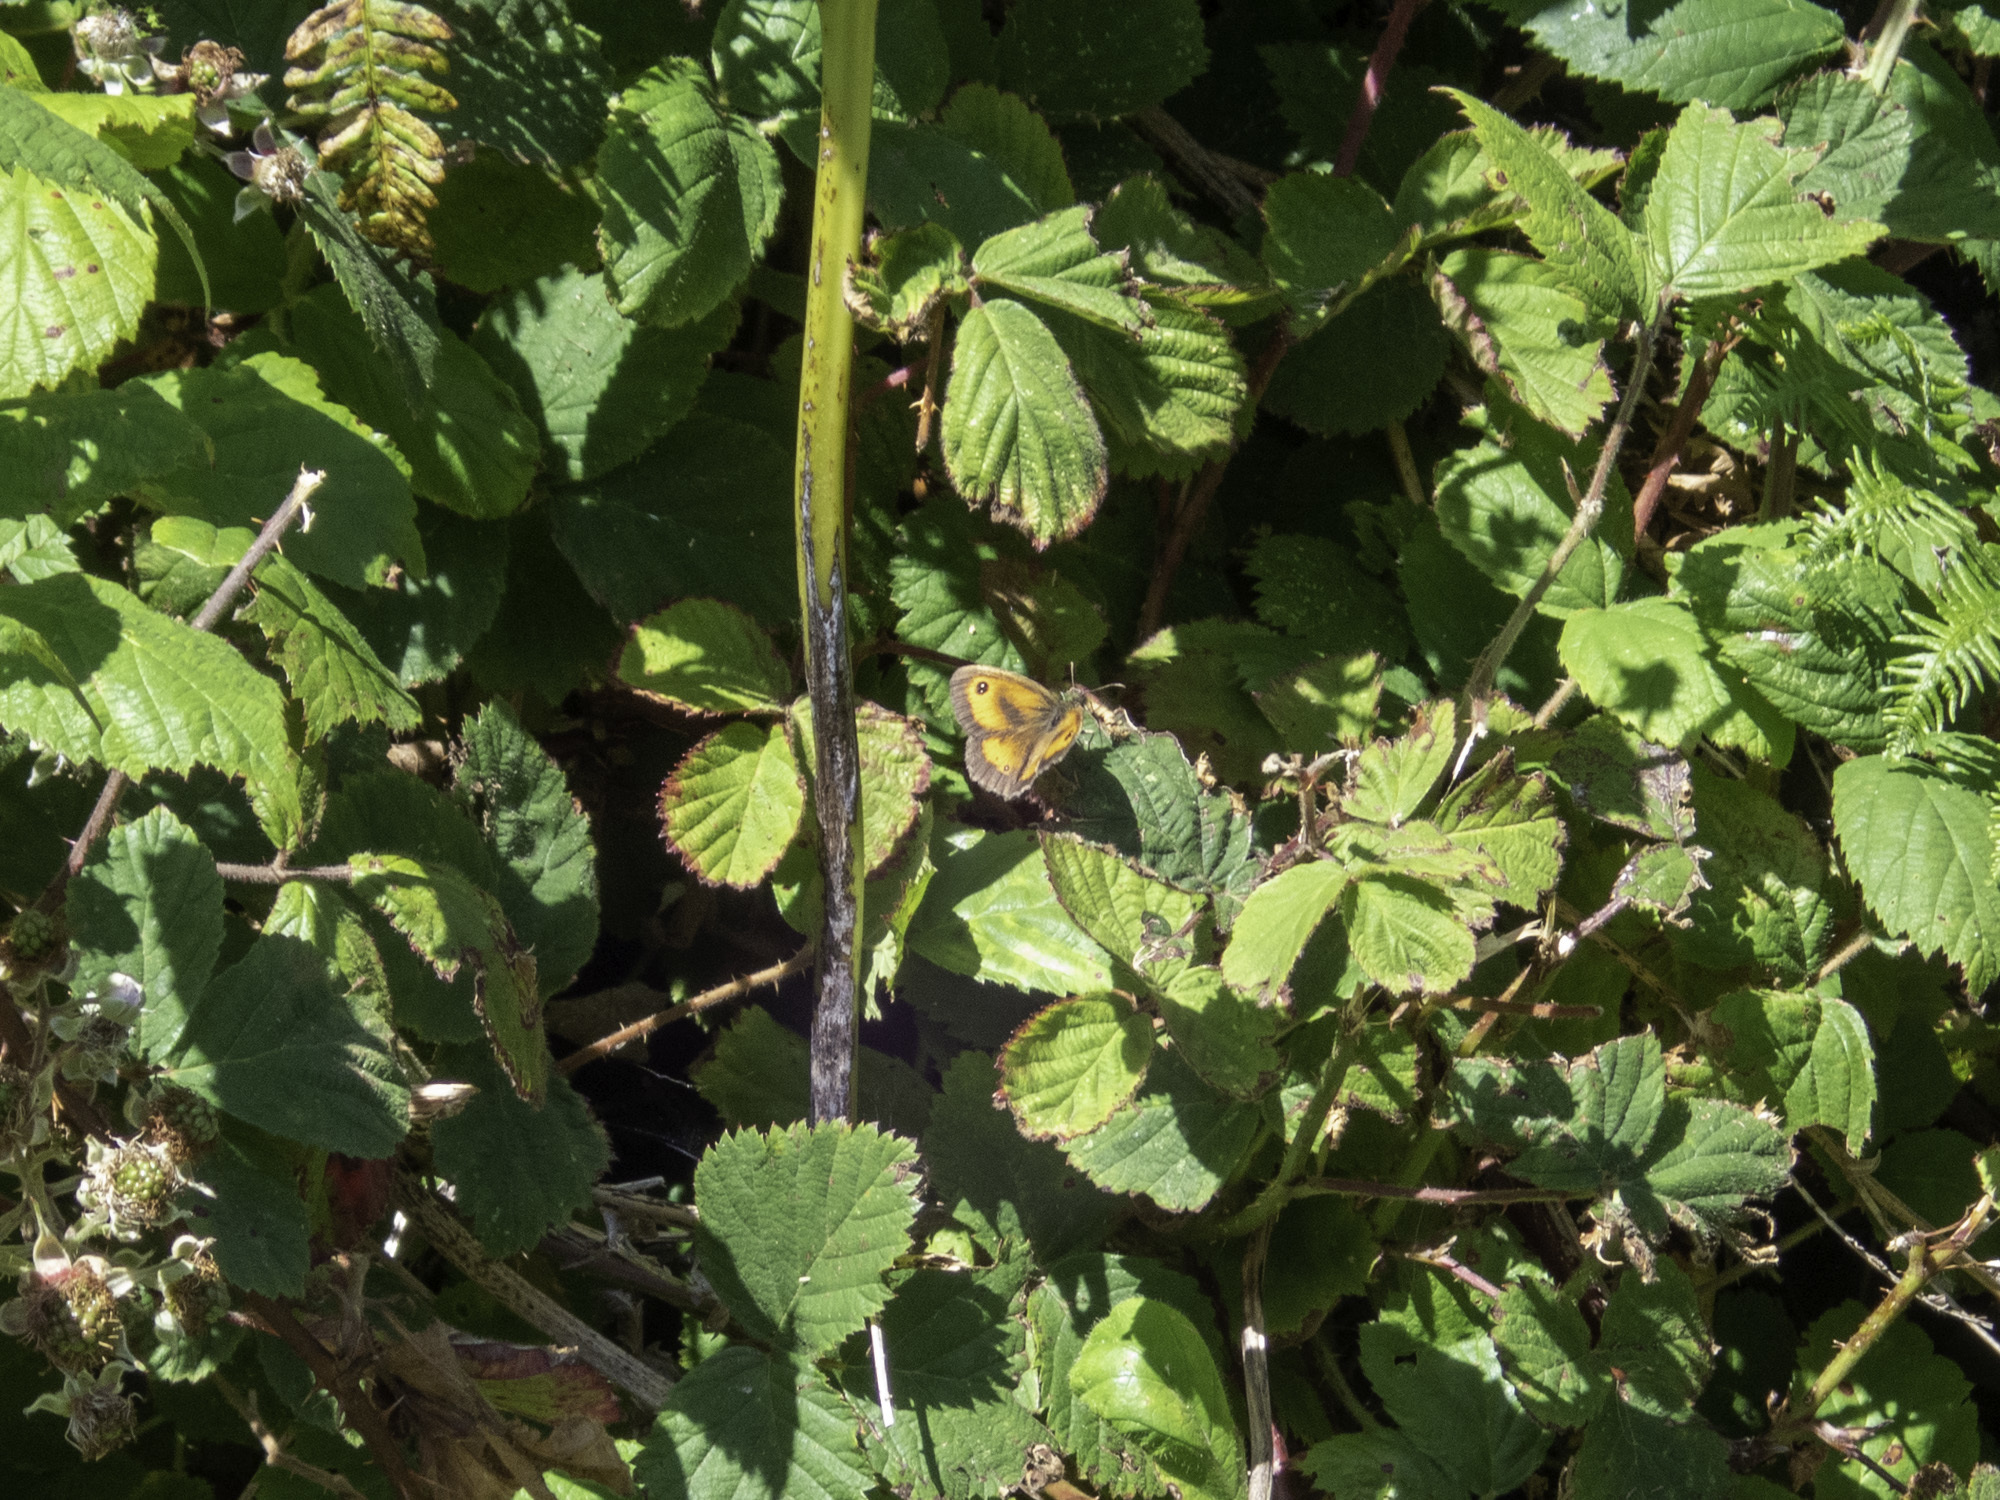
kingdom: Animalia
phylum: Arthropoda
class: Insecta
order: Lepidoptera
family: Nymphalidae
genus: Pyronia
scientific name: Pyronia tithonus
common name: Gatekeeper
